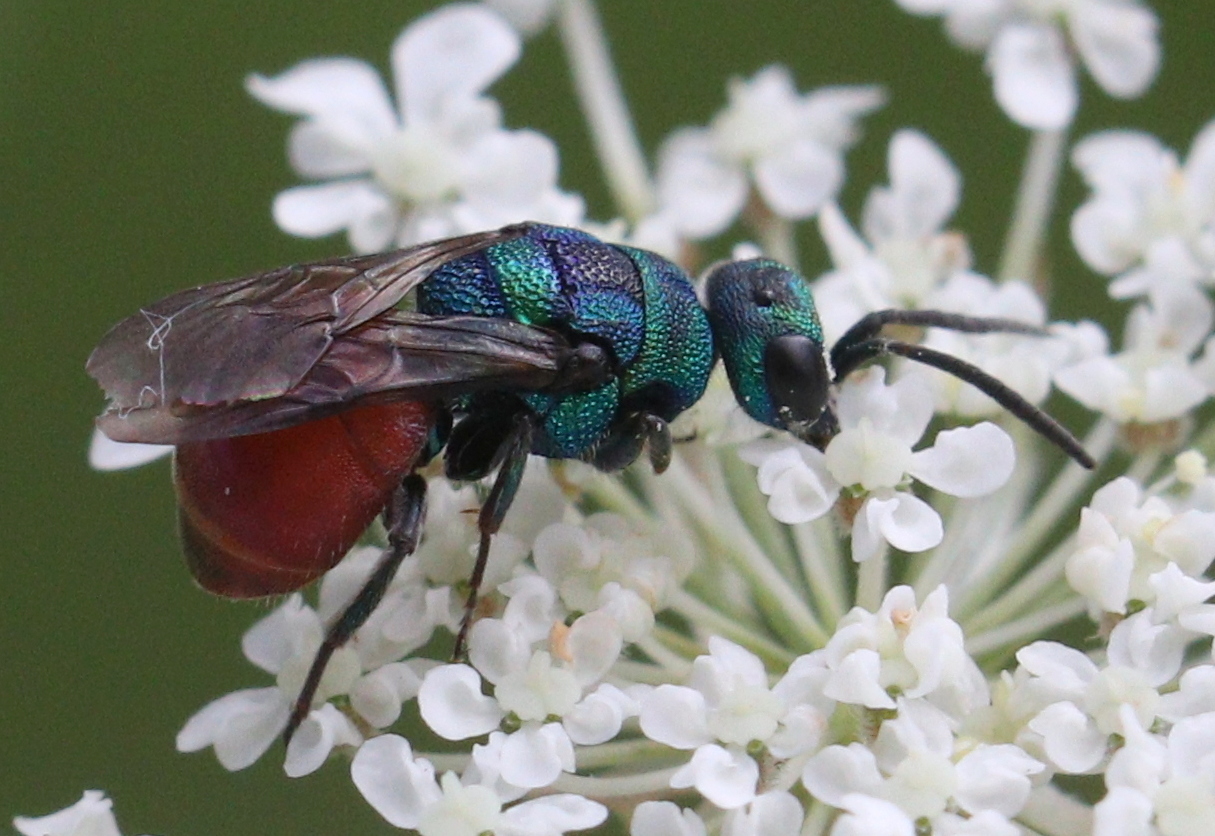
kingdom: Animalia
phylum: Arthropoda
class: Insecta
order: Hymenoptera
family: Chrysididae
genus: Hedychridium
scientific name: Hedychridium roseum
